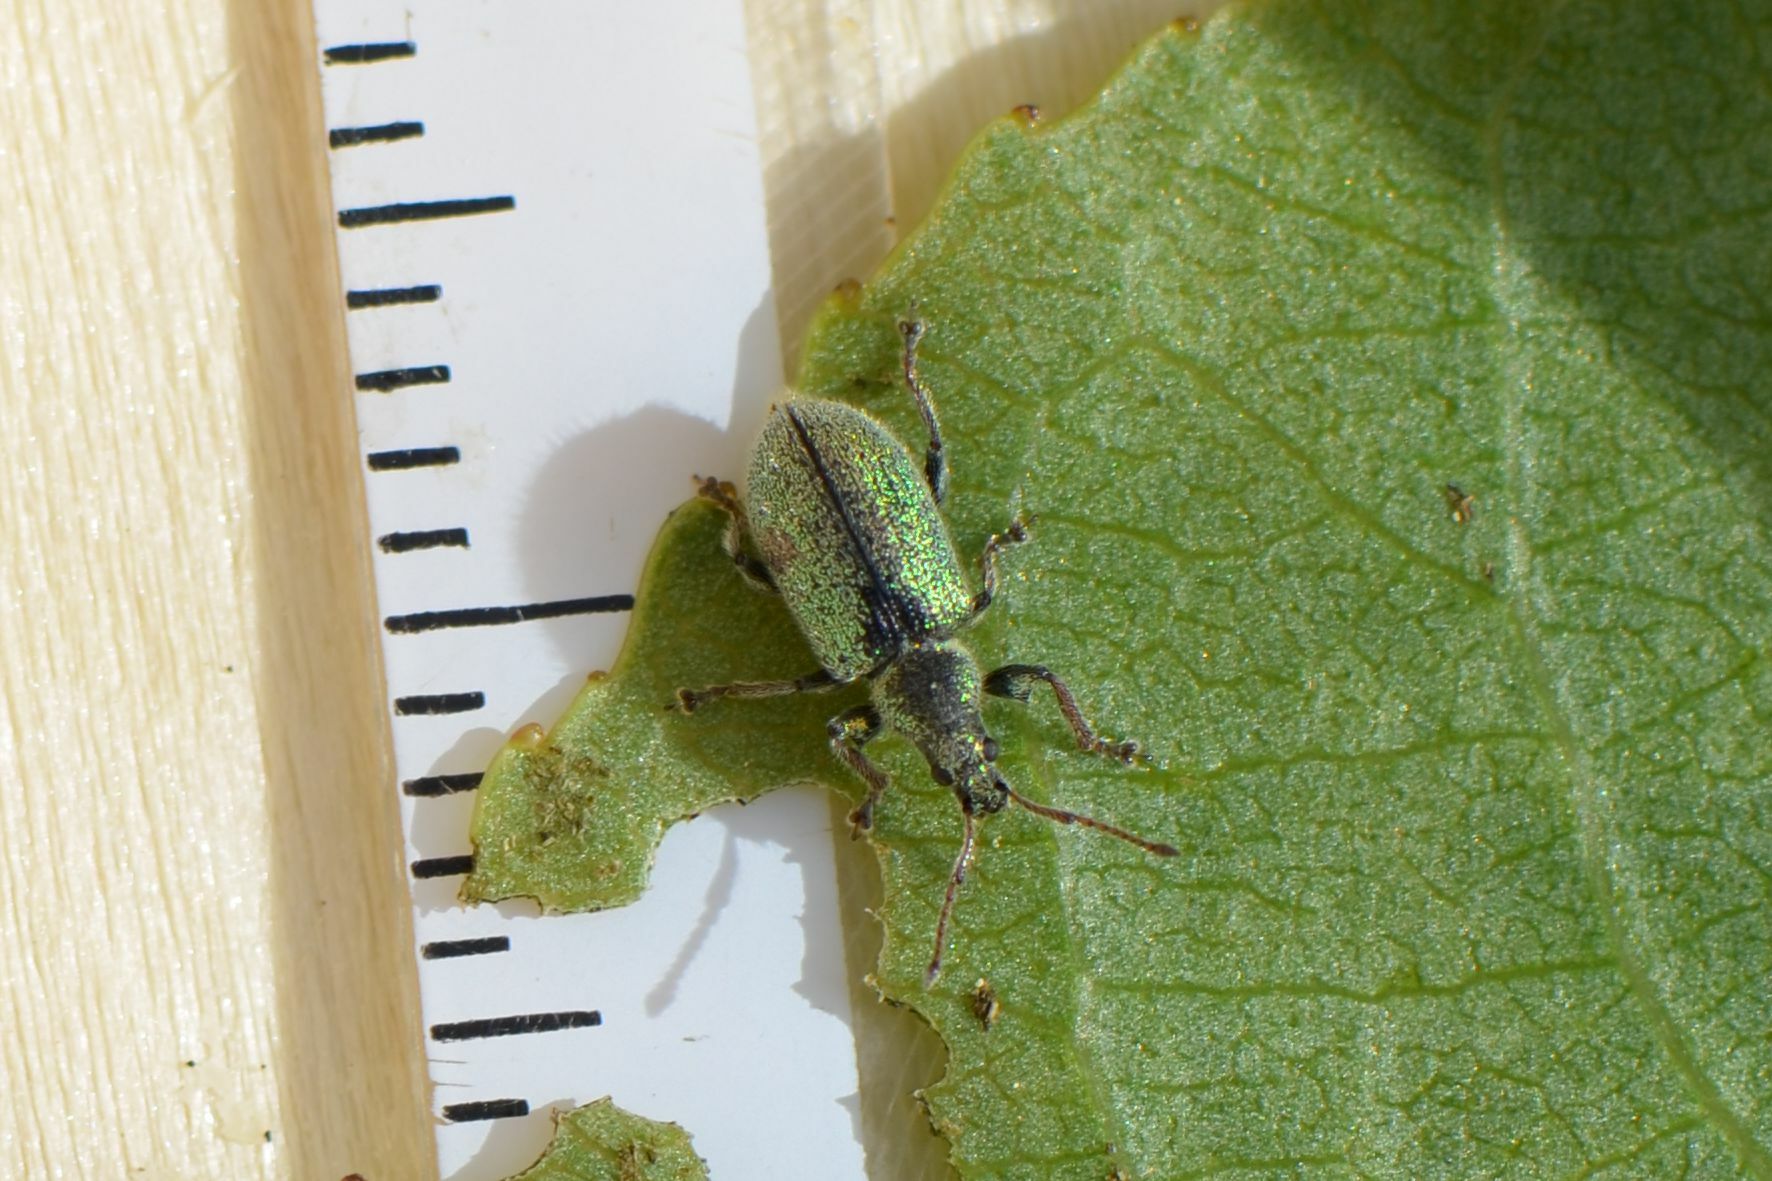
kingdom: Animalia
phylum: Arthropoda
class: Insecta
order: Coleoptera
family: Curculionidae
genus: Phyllobius
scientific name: Phyllobius betulinus
